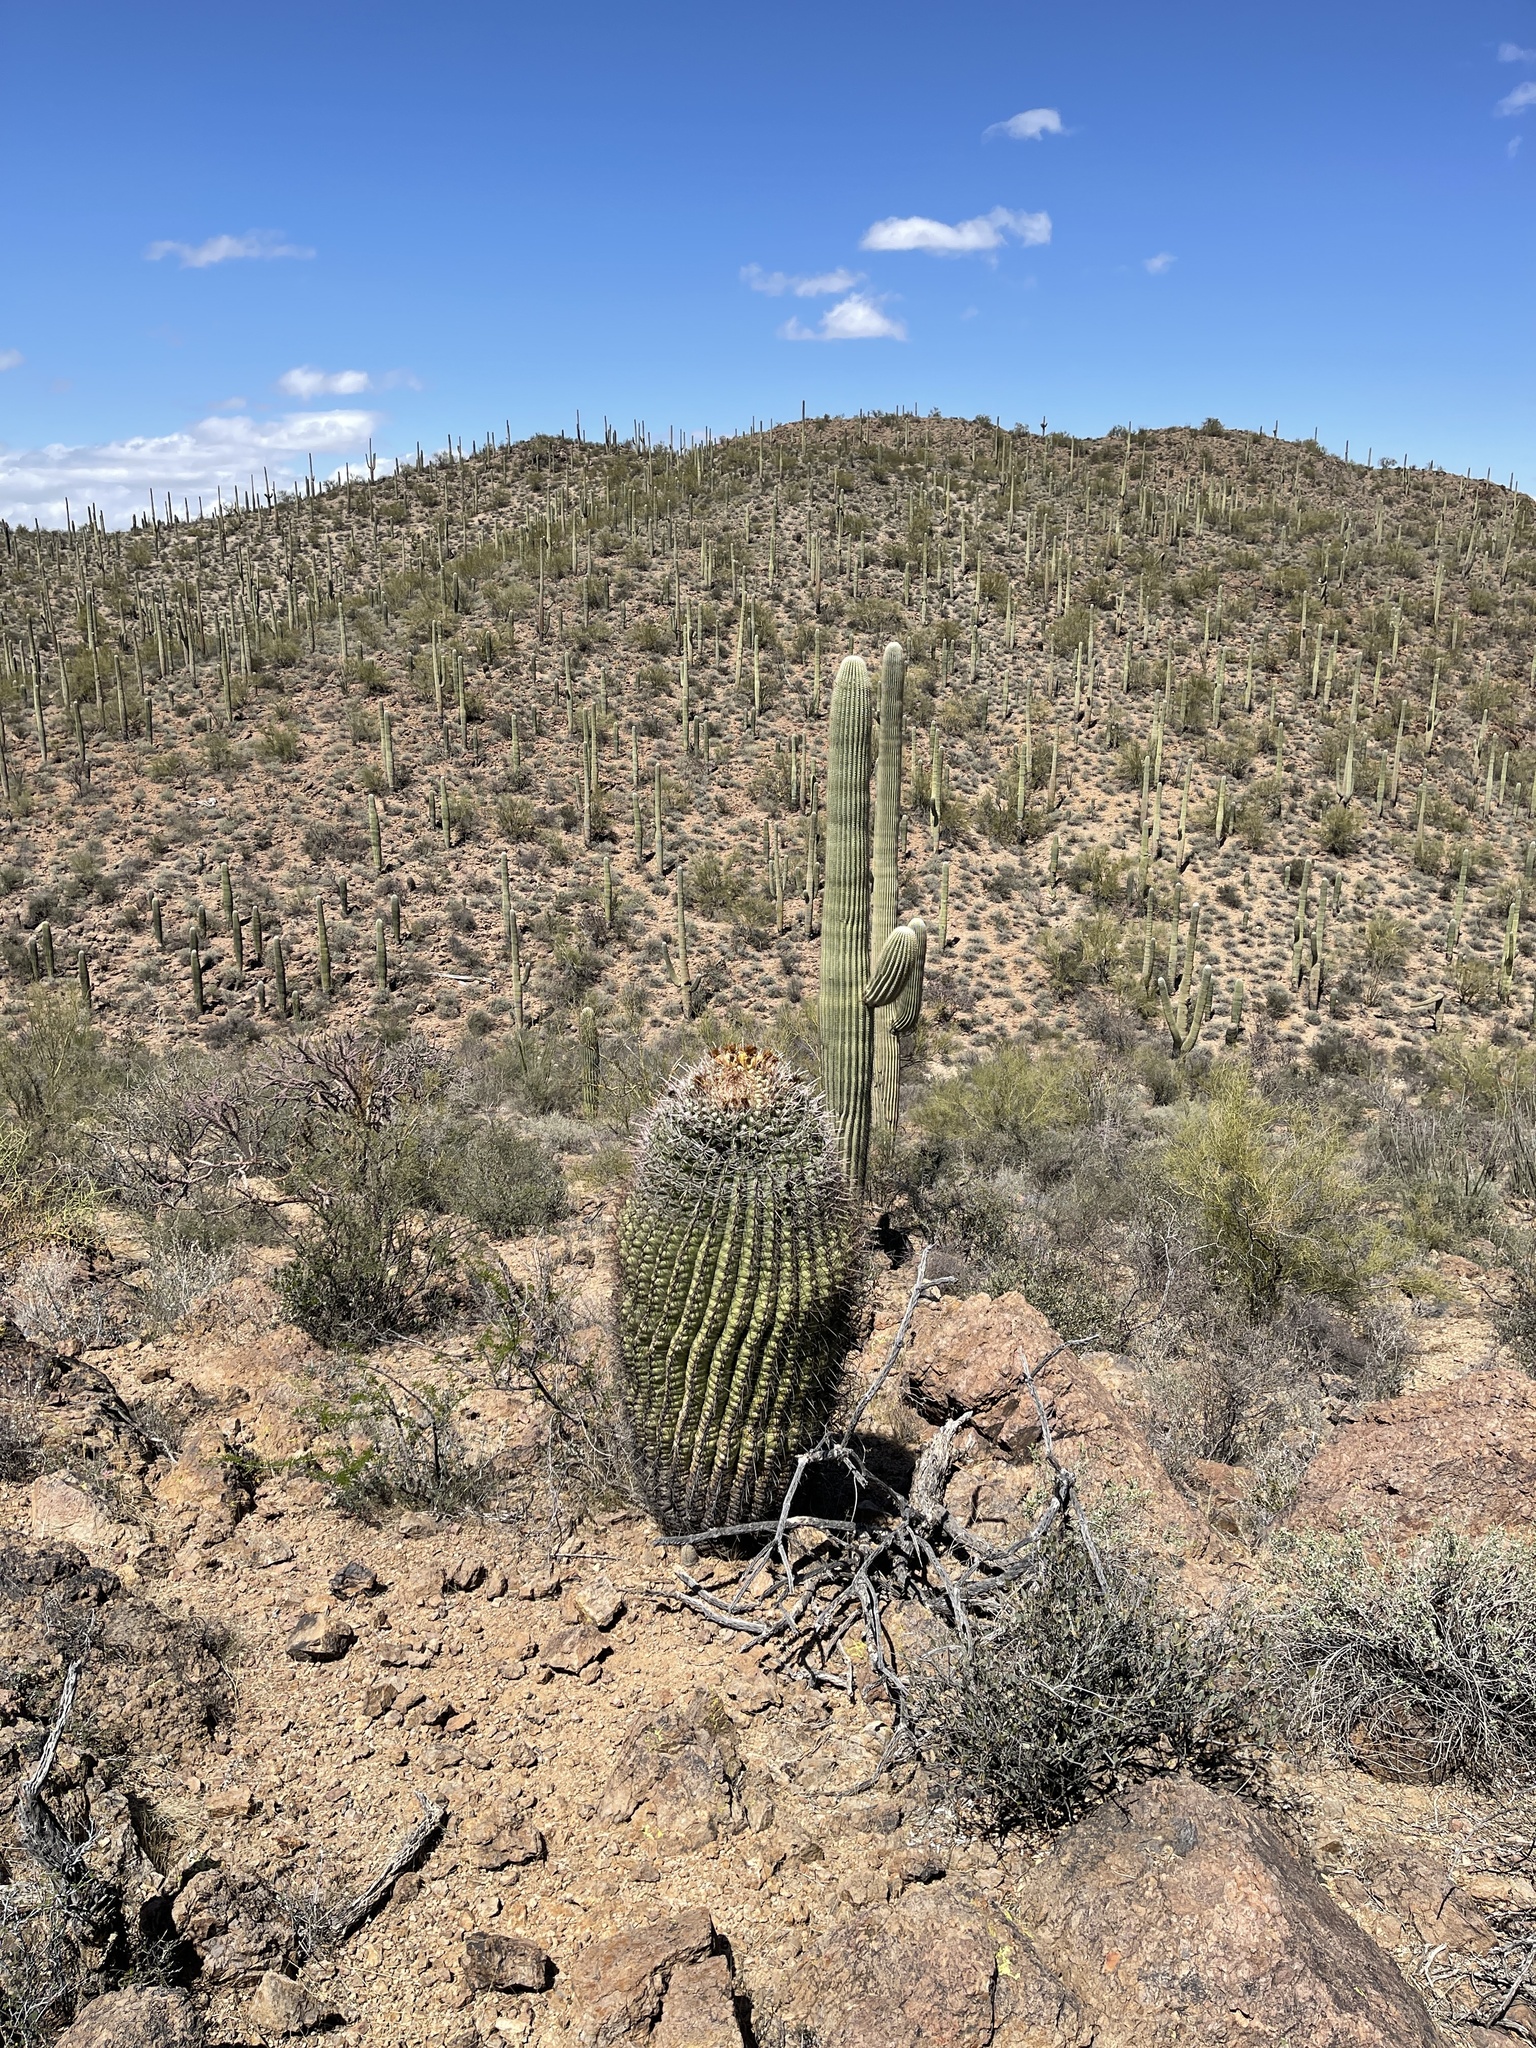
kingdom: Plantae
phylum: Tracheophyta
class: Magnoliopsida
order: Caryophyllales
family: Cactaceae
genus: Ferocactus
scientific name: Ferocactus wislizeni
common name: Candy barrel cactus
